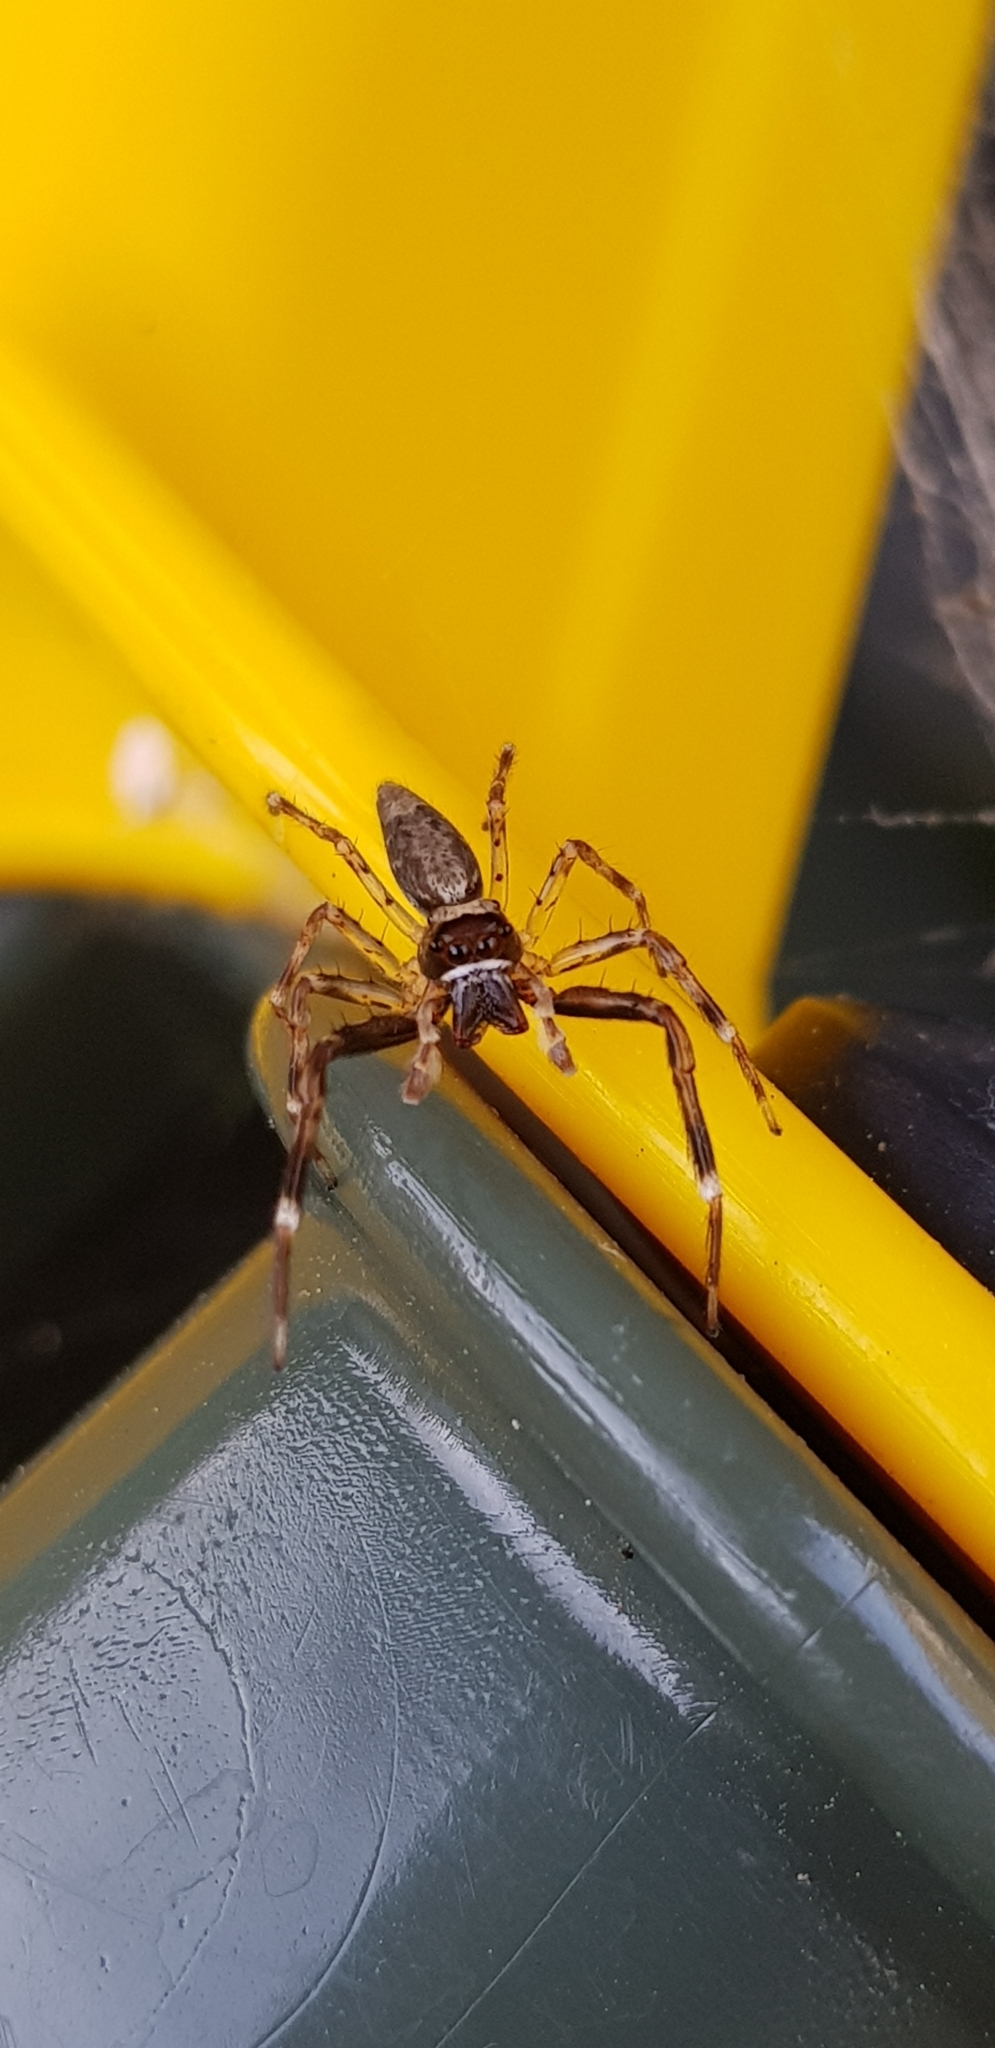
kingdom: Animalia
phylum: Arthropoda
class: Arachnida
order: Araneae
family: Salticidae
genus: Helpis
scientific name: Helpis minitabunda
